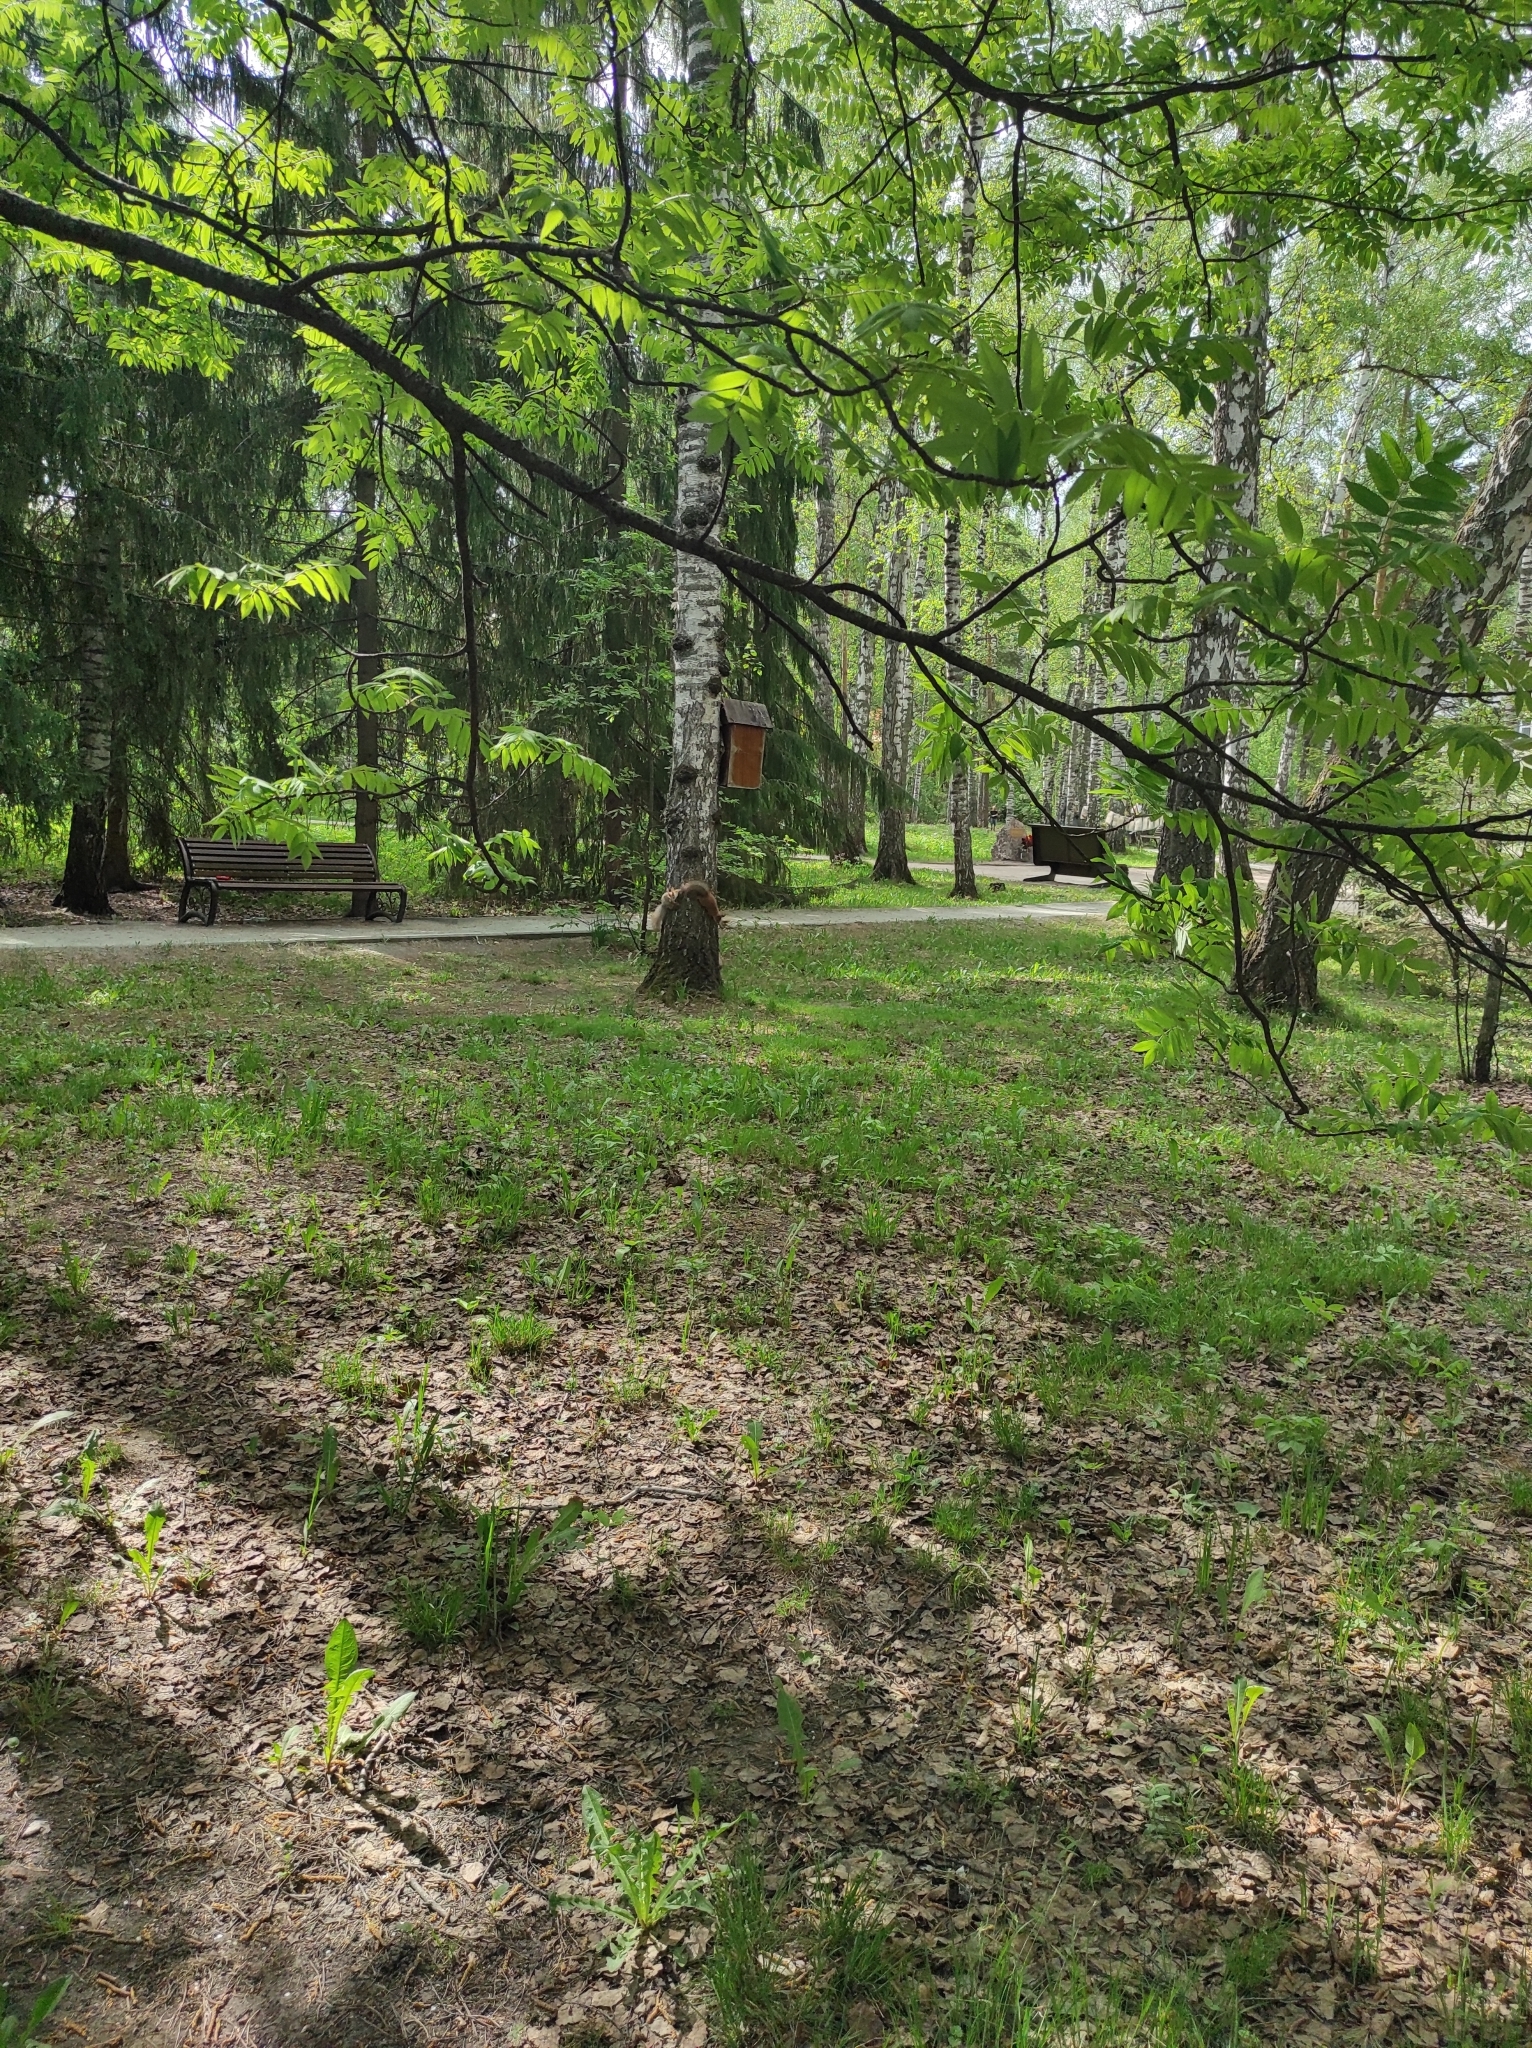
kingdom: Animalia
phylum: Chordata
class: Mammalia
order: Rodentia
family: Sciuridae
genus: Sciurus
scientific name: Sciurus vulgaris
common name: Eurasian red squirrel
